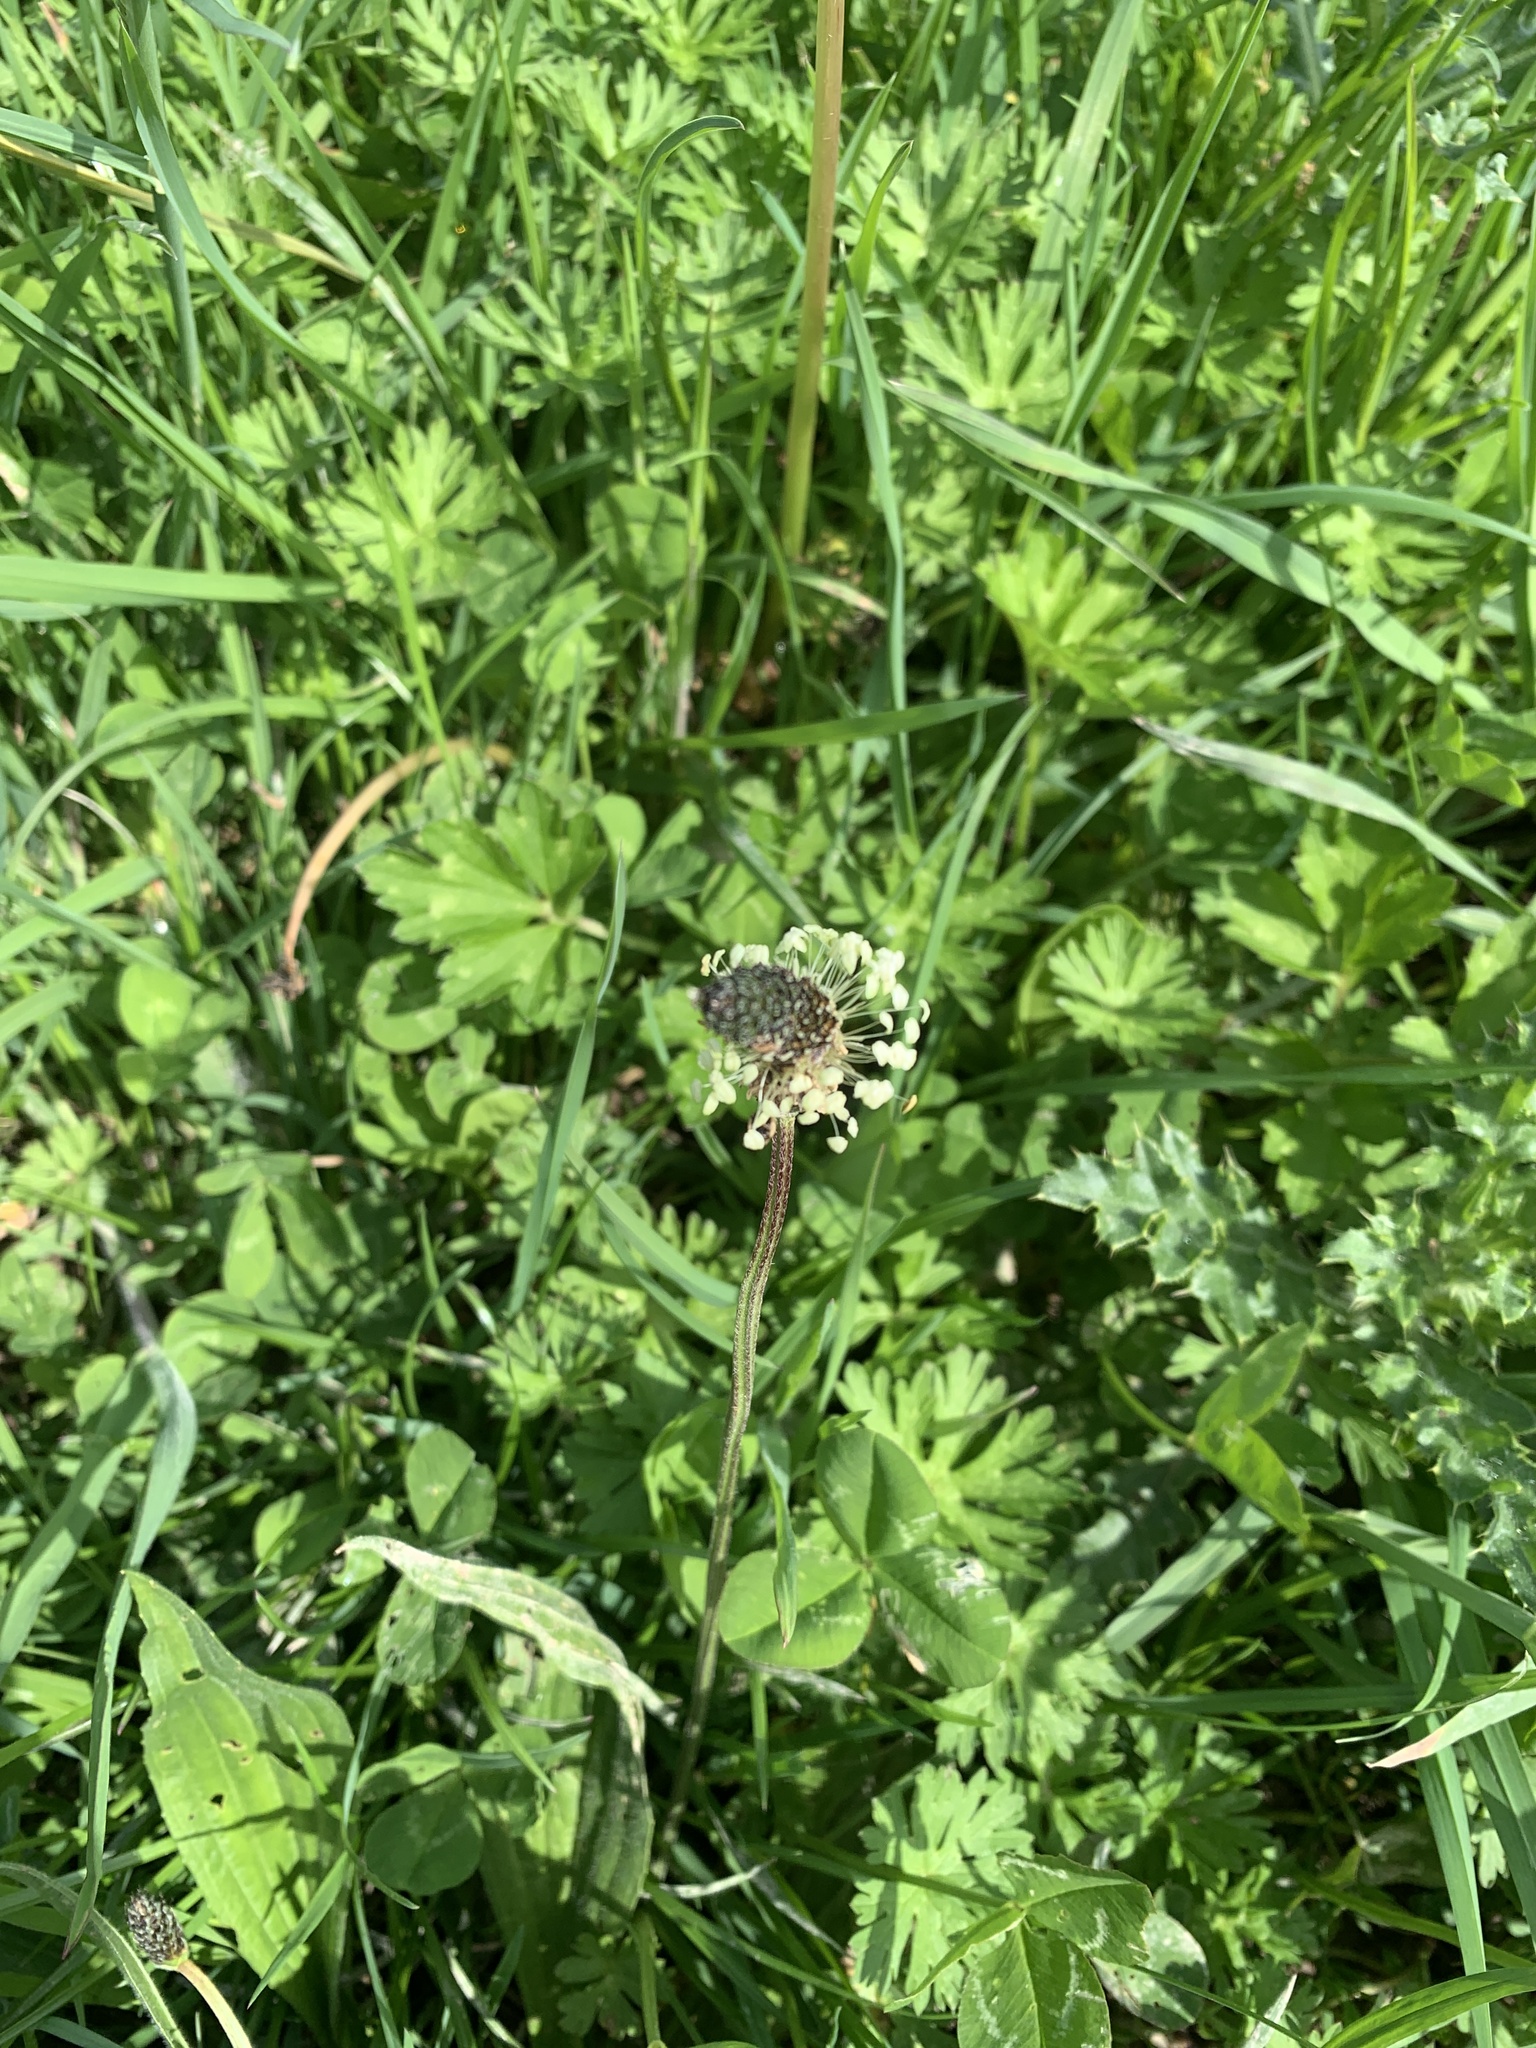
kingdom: Plantae
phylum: Tracheophyta
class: Magnoliopsida
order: Lamiales
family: Plantaginaceae
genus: Plantago
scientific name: Plantago lanceolata
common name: Ribwort plantain
